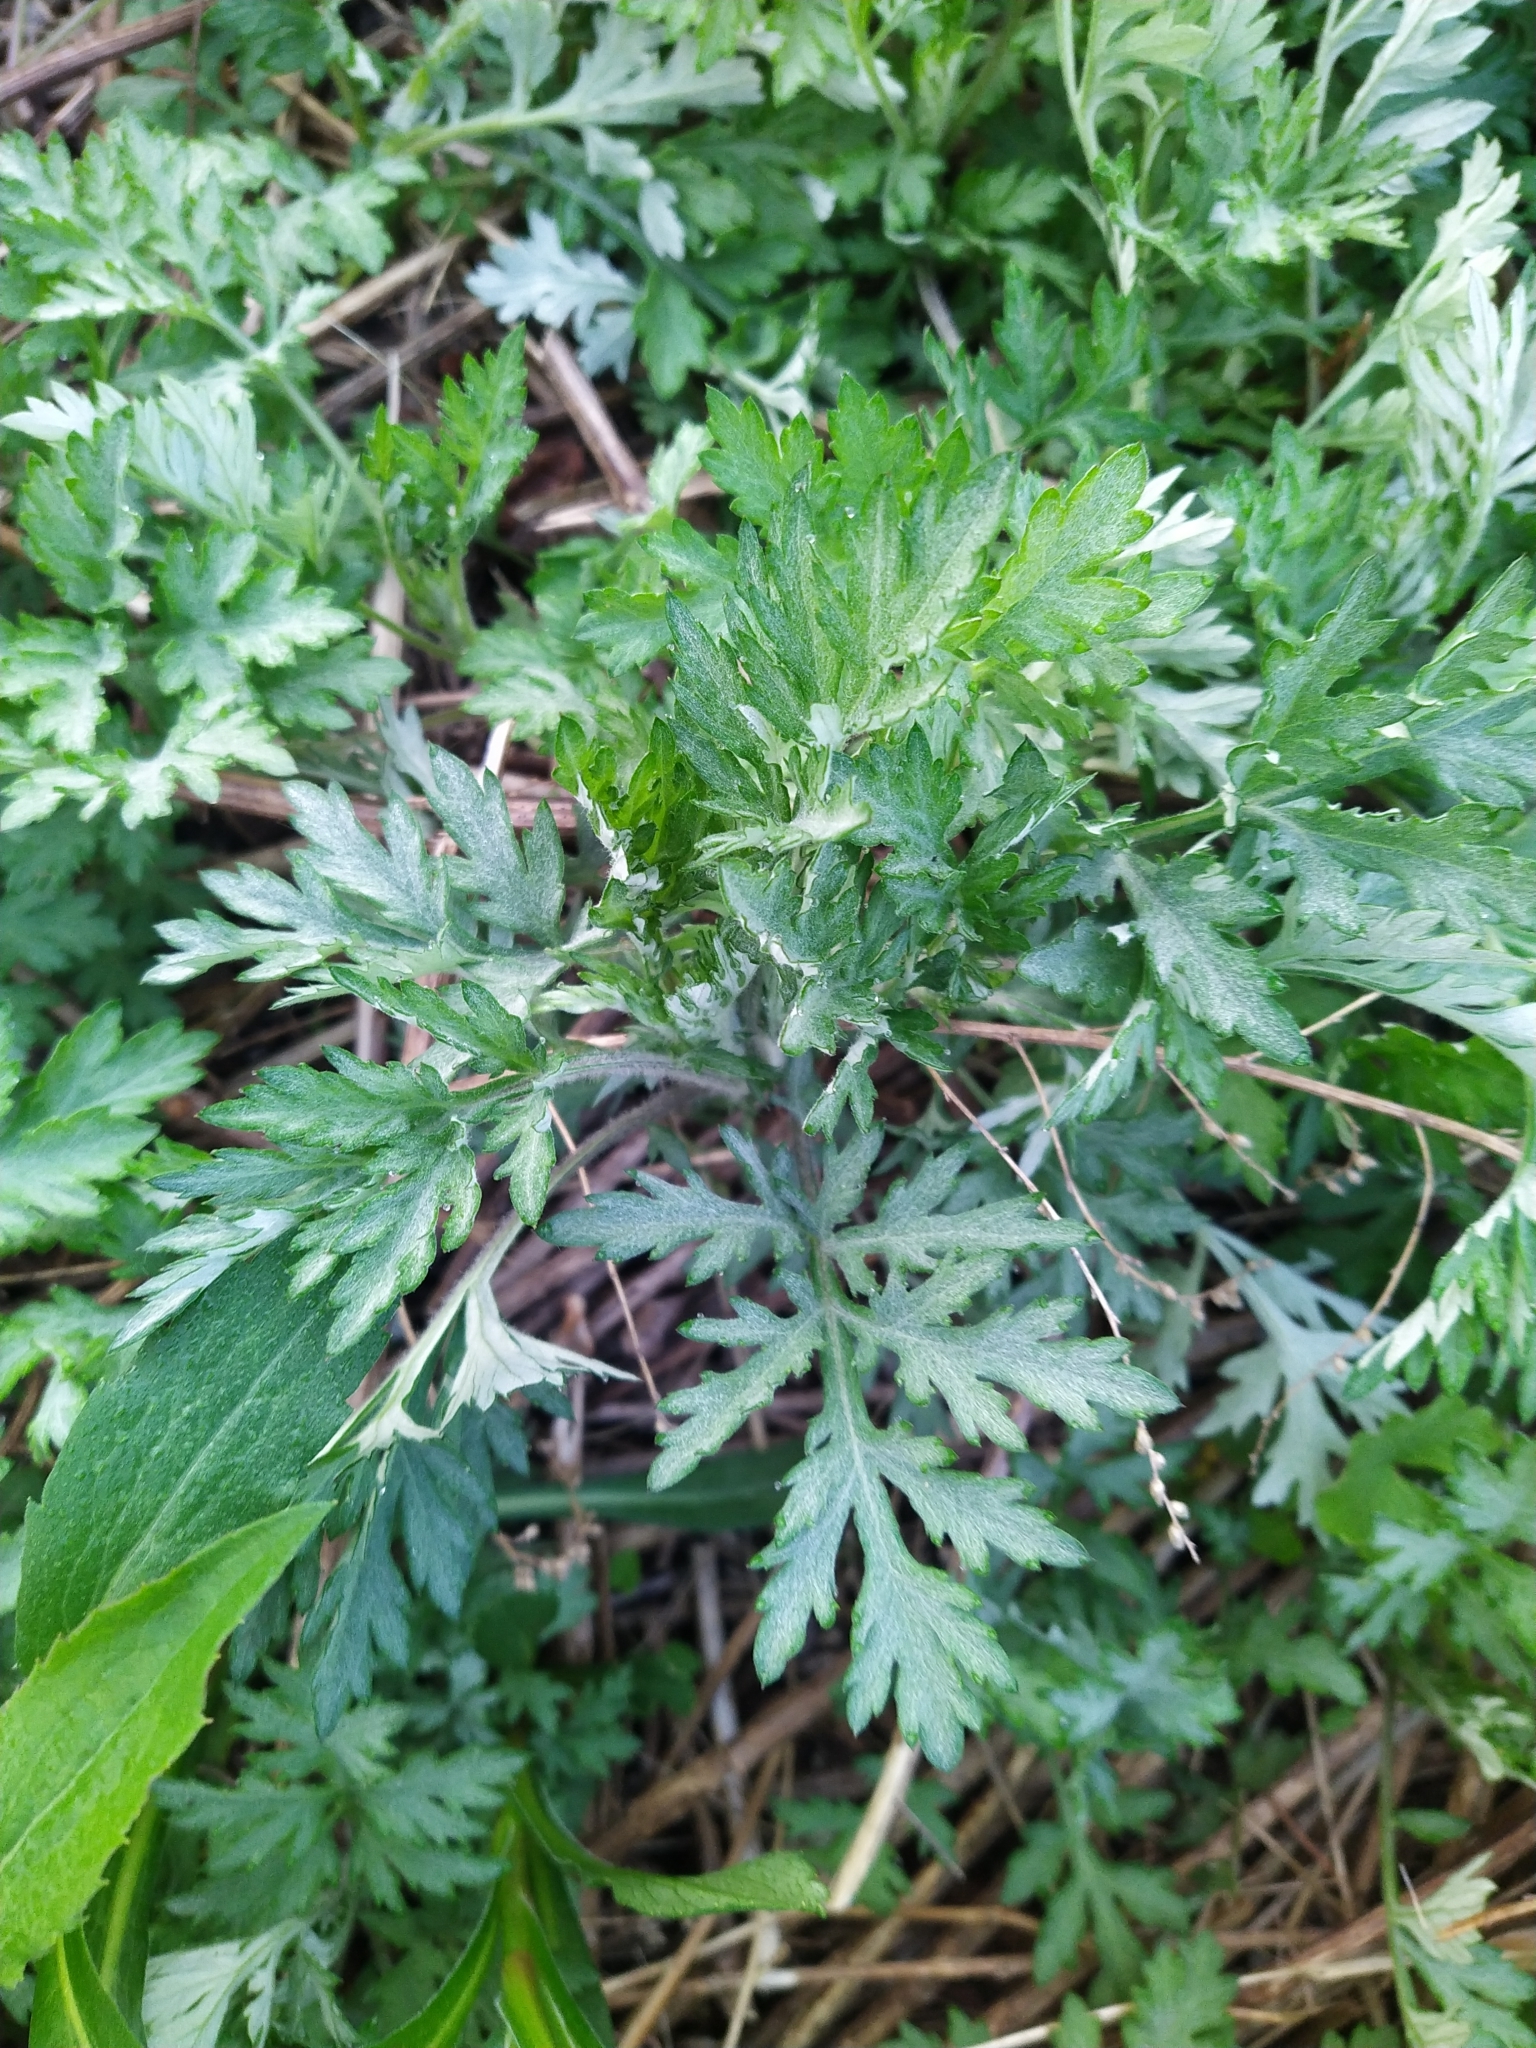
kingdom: Plantae
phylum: Tracheophyta
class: Magnoliopsida
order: Asterales
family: Asteraceae
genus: Artemisia
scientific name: Artemisia vulgaris
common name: Mugwort
